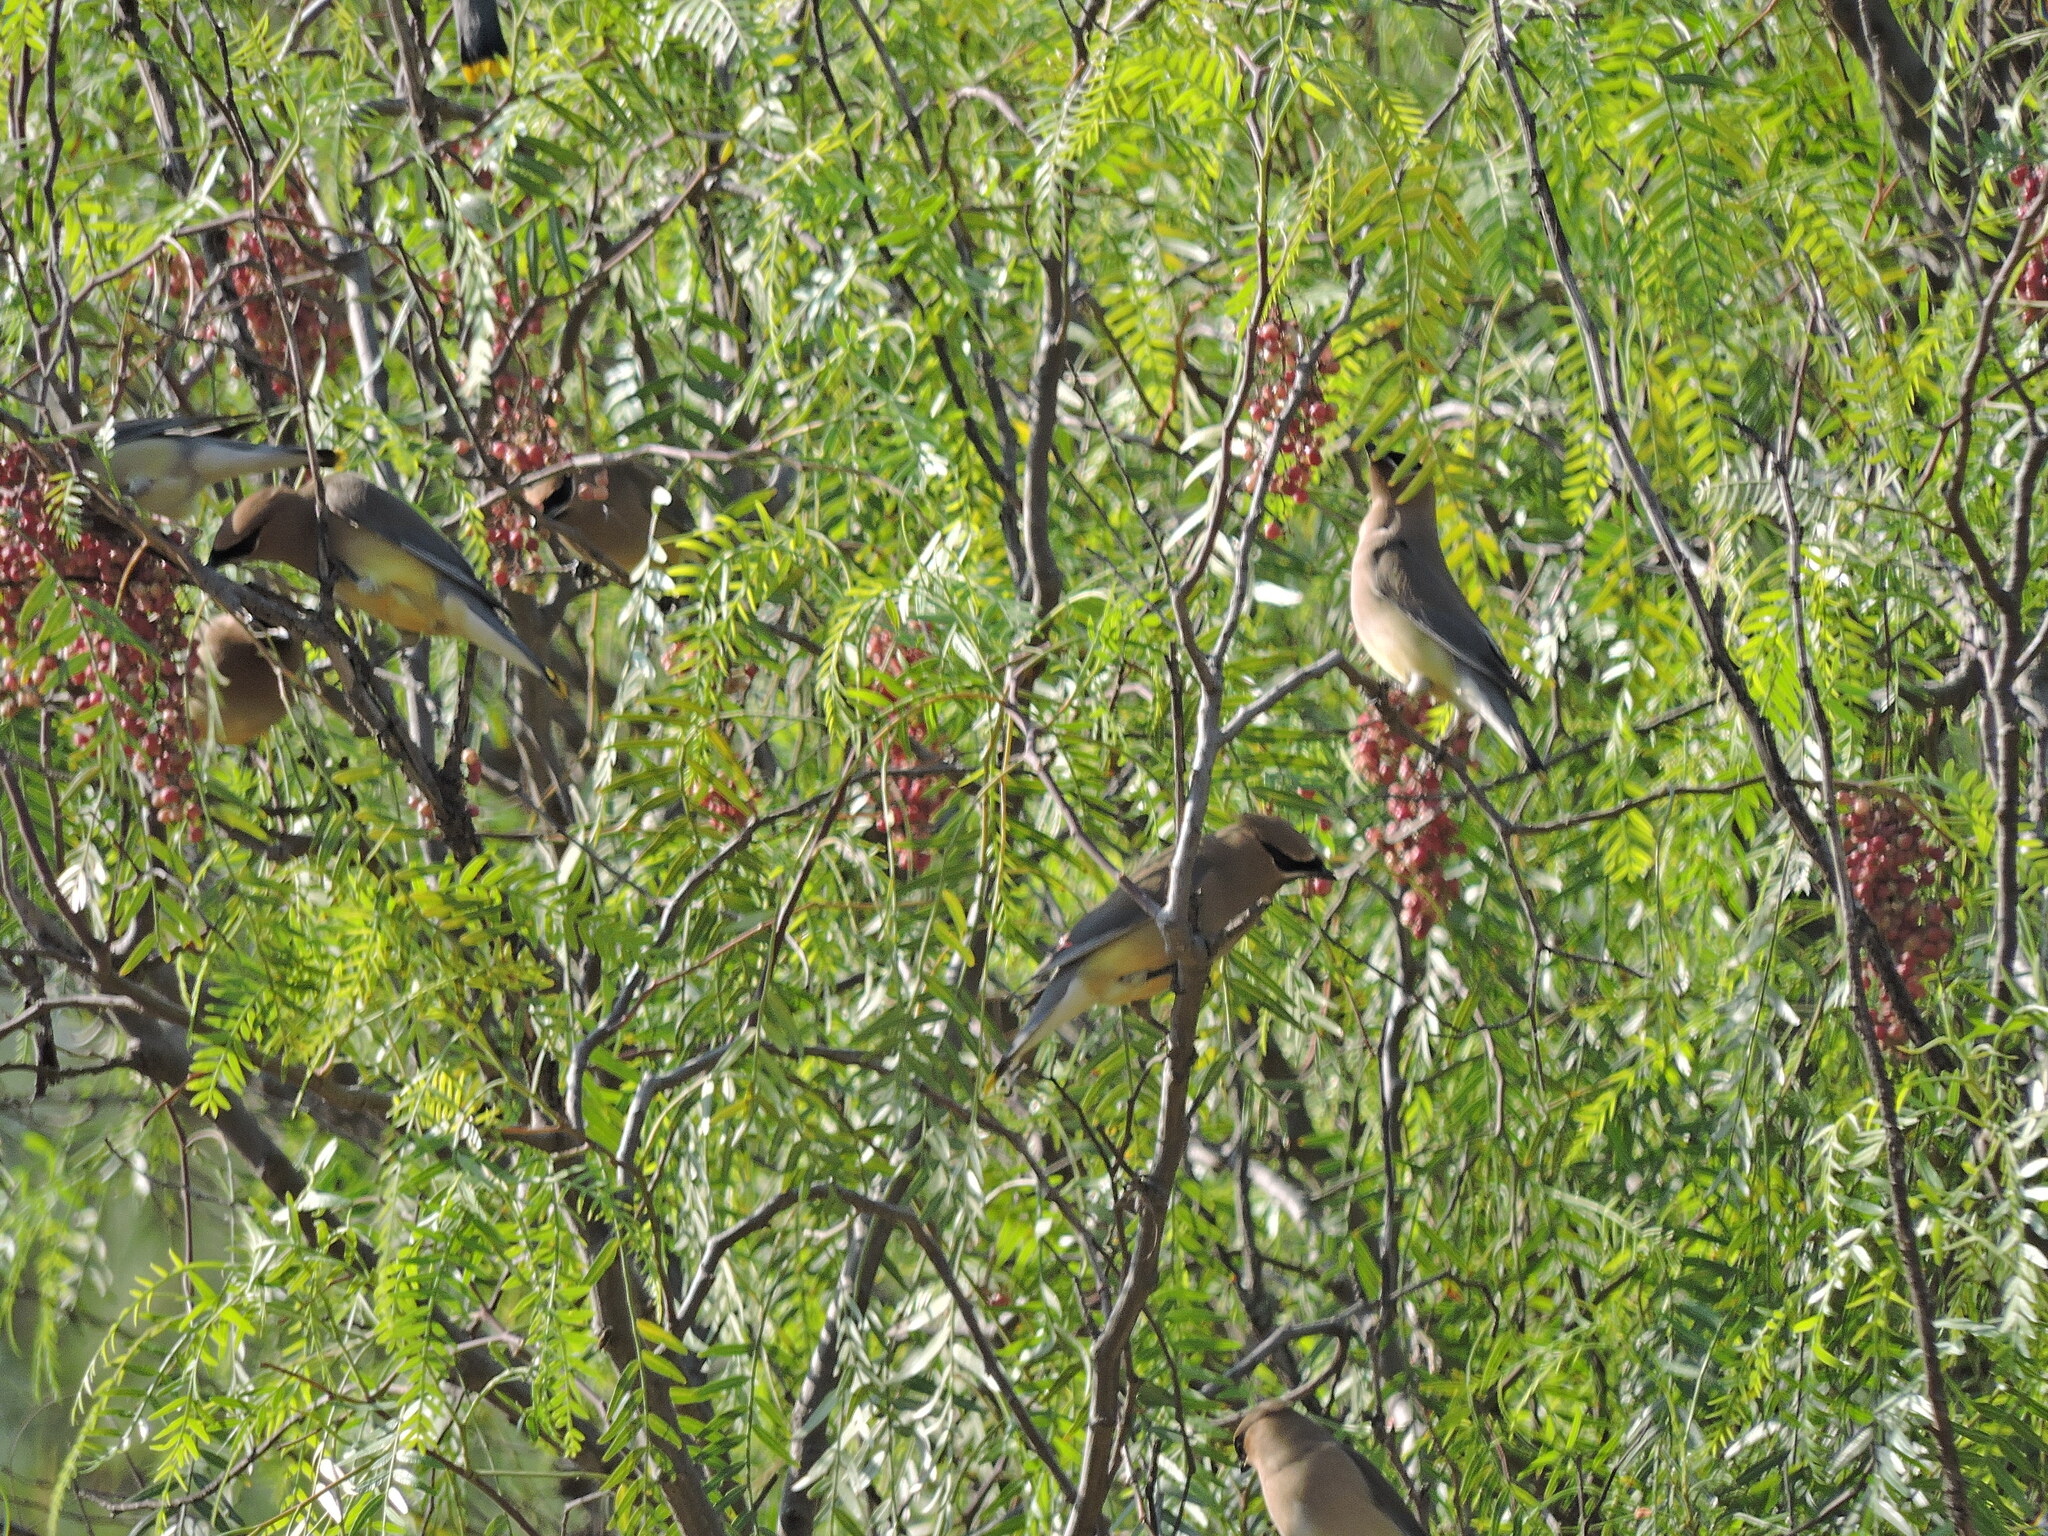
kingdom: Animalia
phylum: Chordata
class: Aves
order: Passeriformes
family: Bombycillidae
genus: Bombycilla
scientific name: Bombycilla cedrorum
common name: Cedar waxwing
